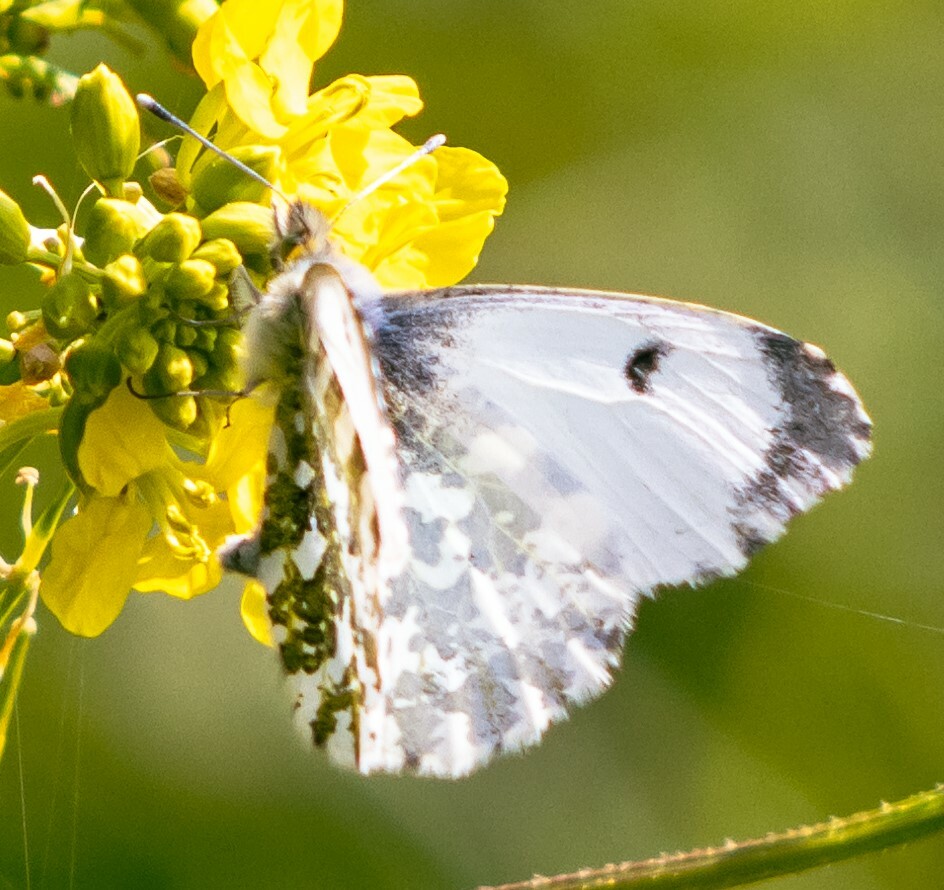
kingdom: Animalia
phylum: Arthropoda
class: Insecta
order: Lepidoptera
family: Pieridae
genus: Anthocharis
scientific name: Anthocharis cardamines
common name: Orange-tip
